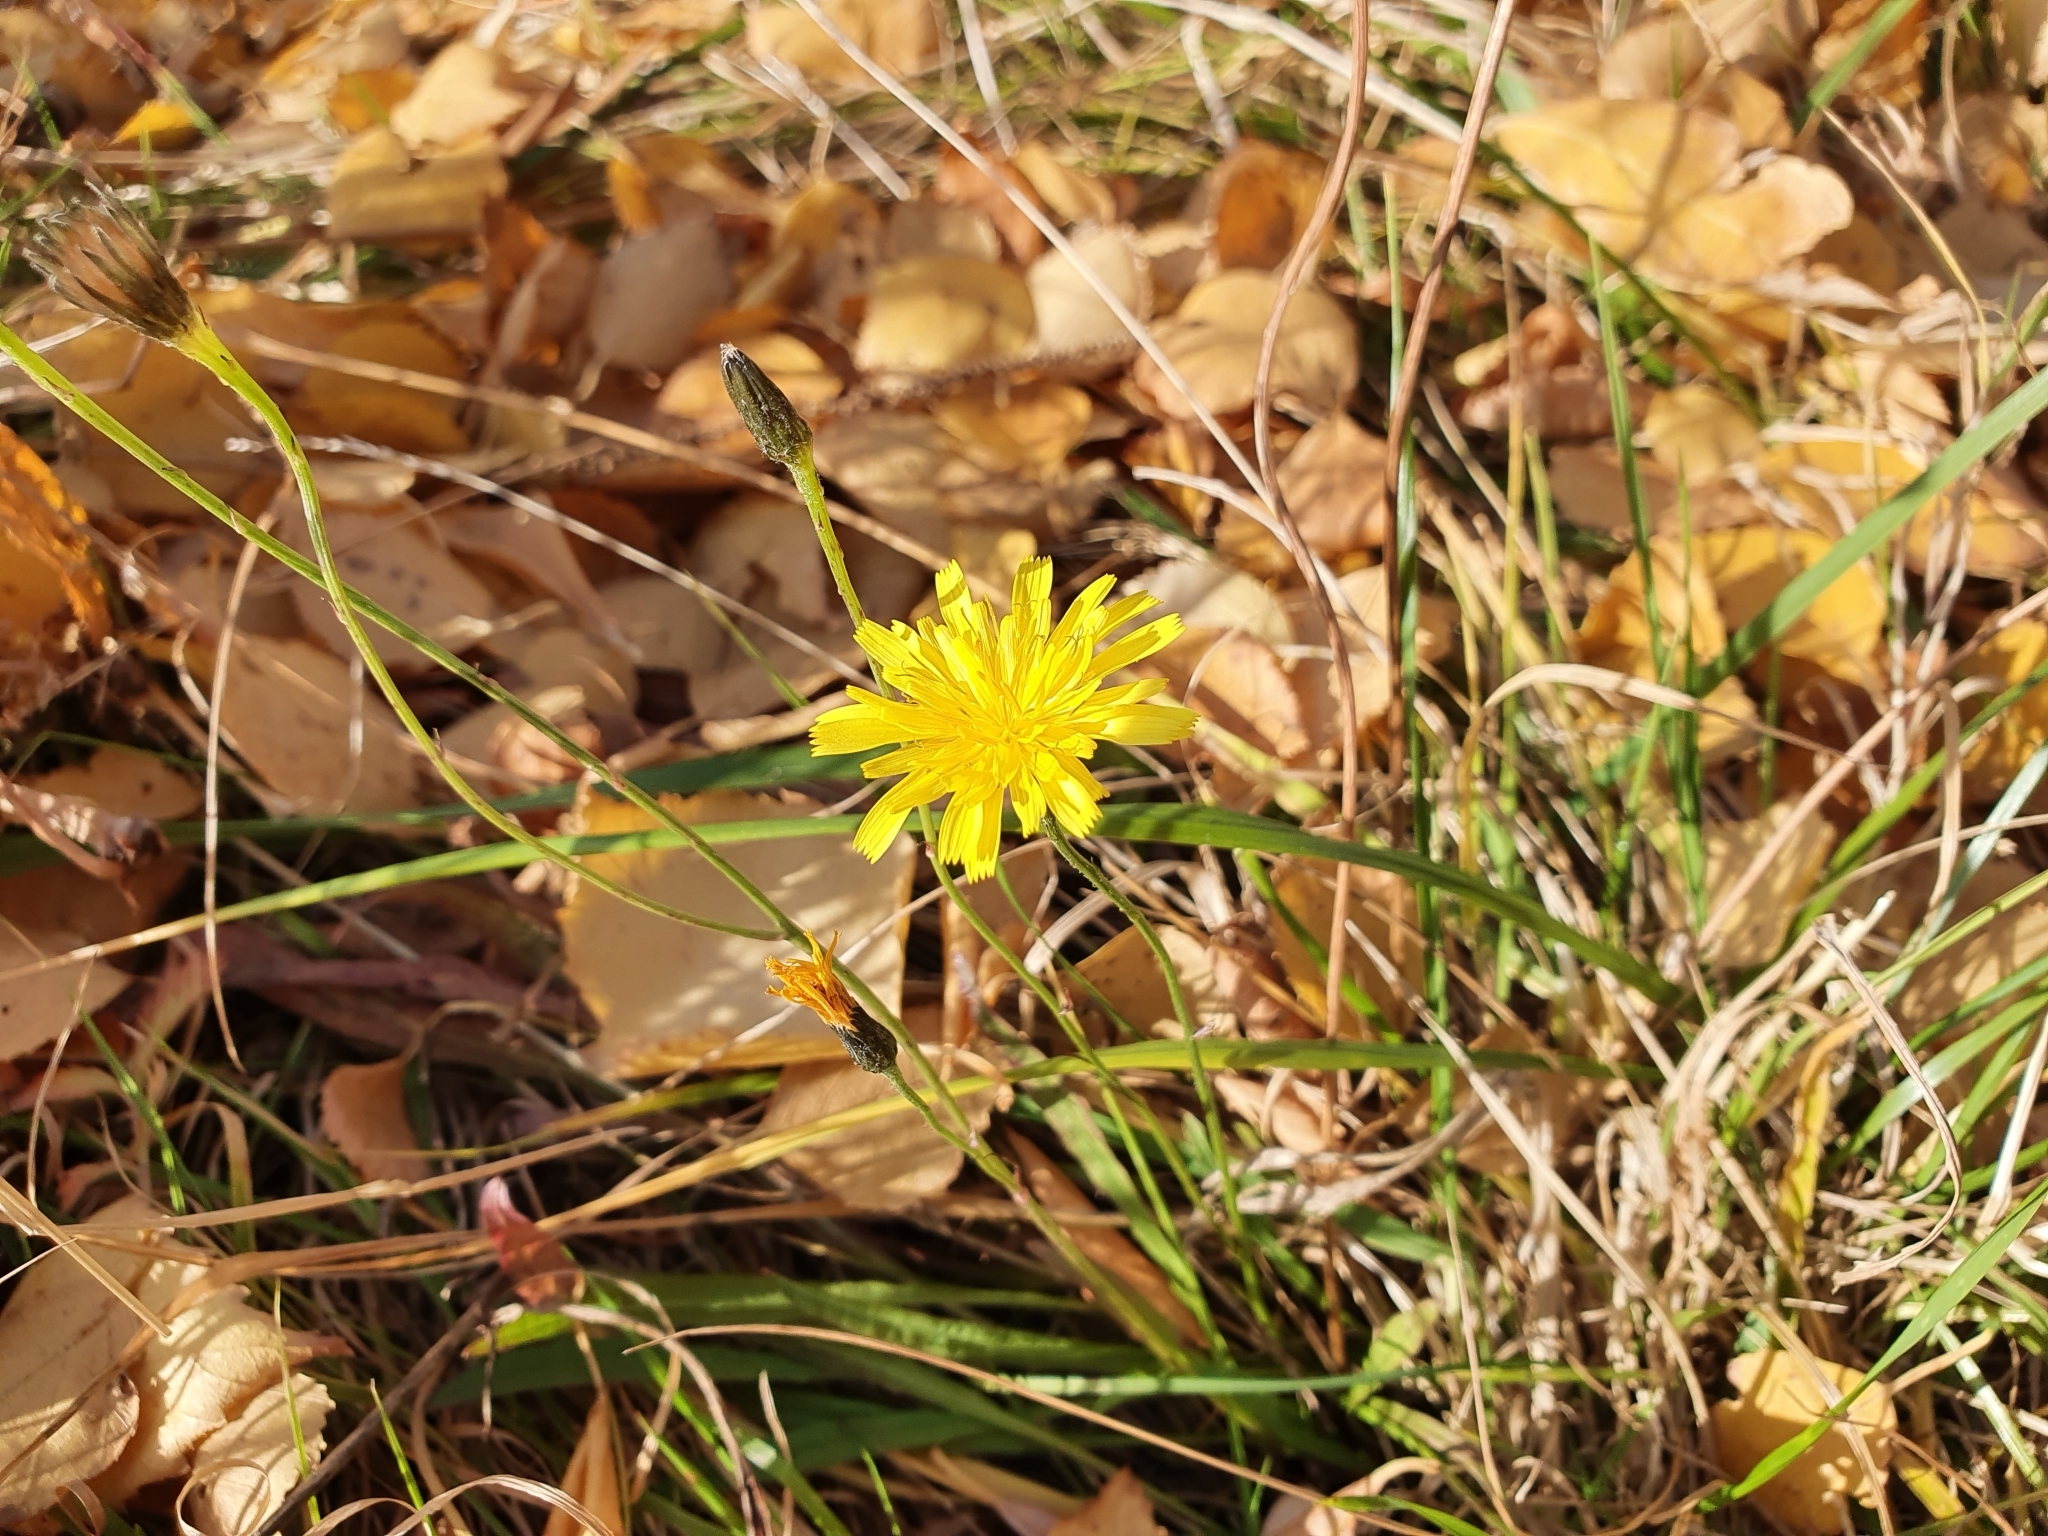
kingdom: Plantae
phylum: Tracheophyta
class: Magnoliopsida
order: Asterales
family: Asteraceae
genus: Scorzoneroides
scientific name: Scorzoneroides autumnalis
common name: Autumn hawkbit
